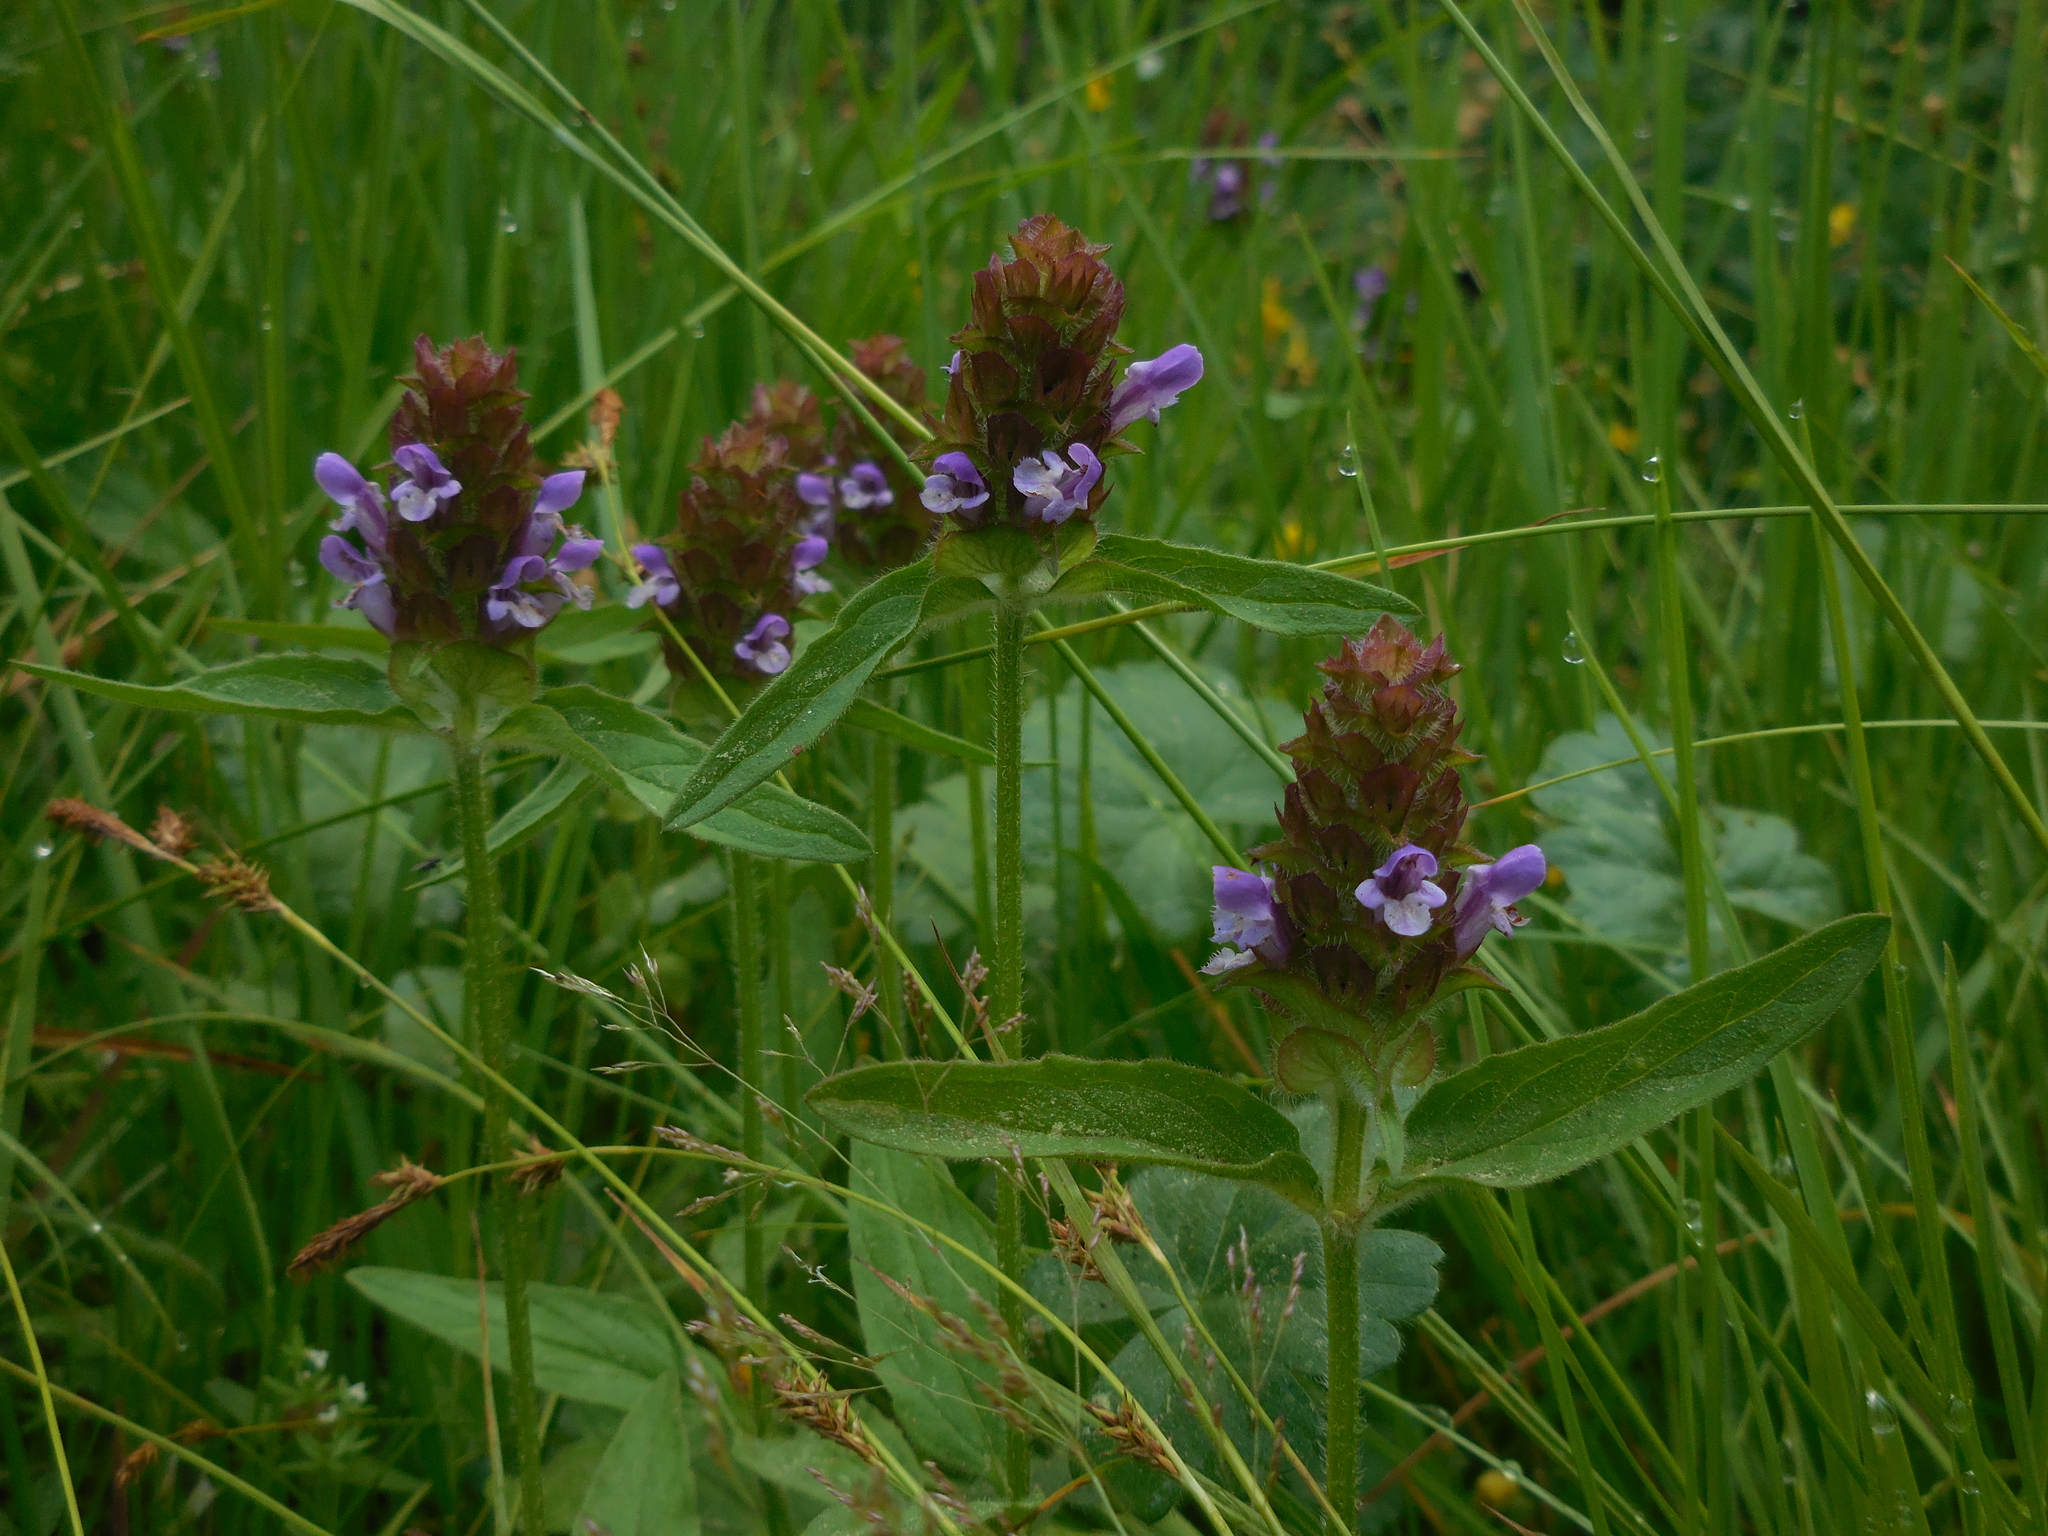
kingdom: Plantae
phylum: Tracheophyta
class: Magnoliopsida
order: Lamiales
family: Lamiaceae
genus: Prunella
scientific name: Prunella vulgaris
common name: Heal-all
